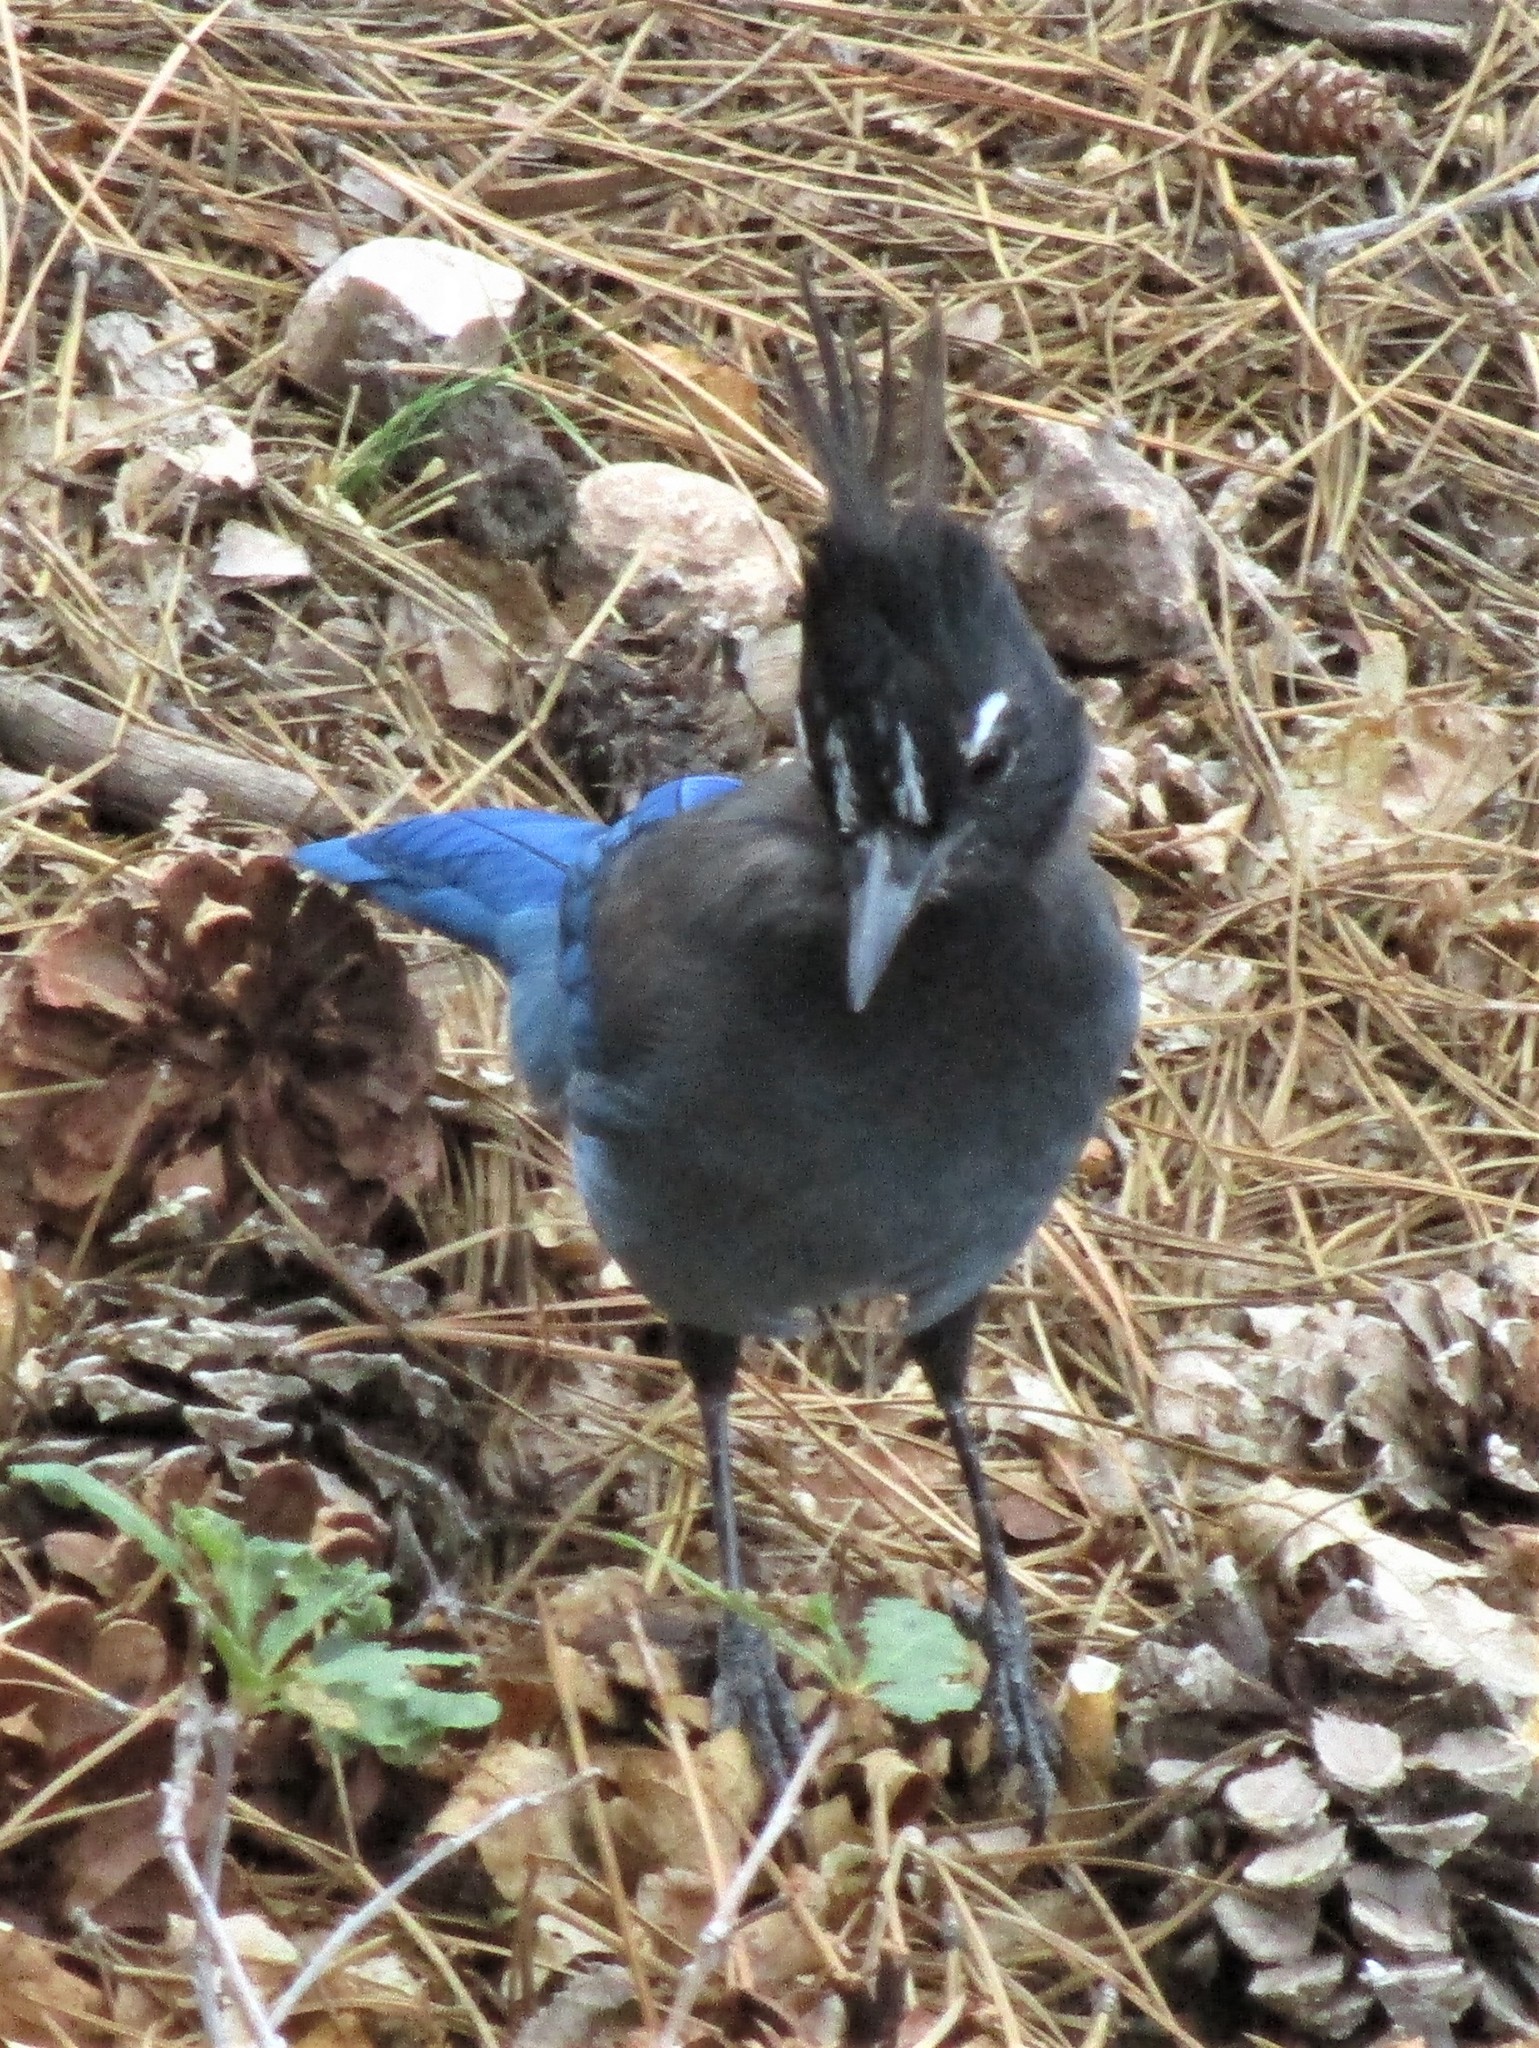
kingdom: Animalia
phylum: Chordata
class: Aves
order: Passeriformes
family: Corvidae
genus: Cyanocitta
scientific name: Cyanocitta stelleri
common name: Steller's jay
